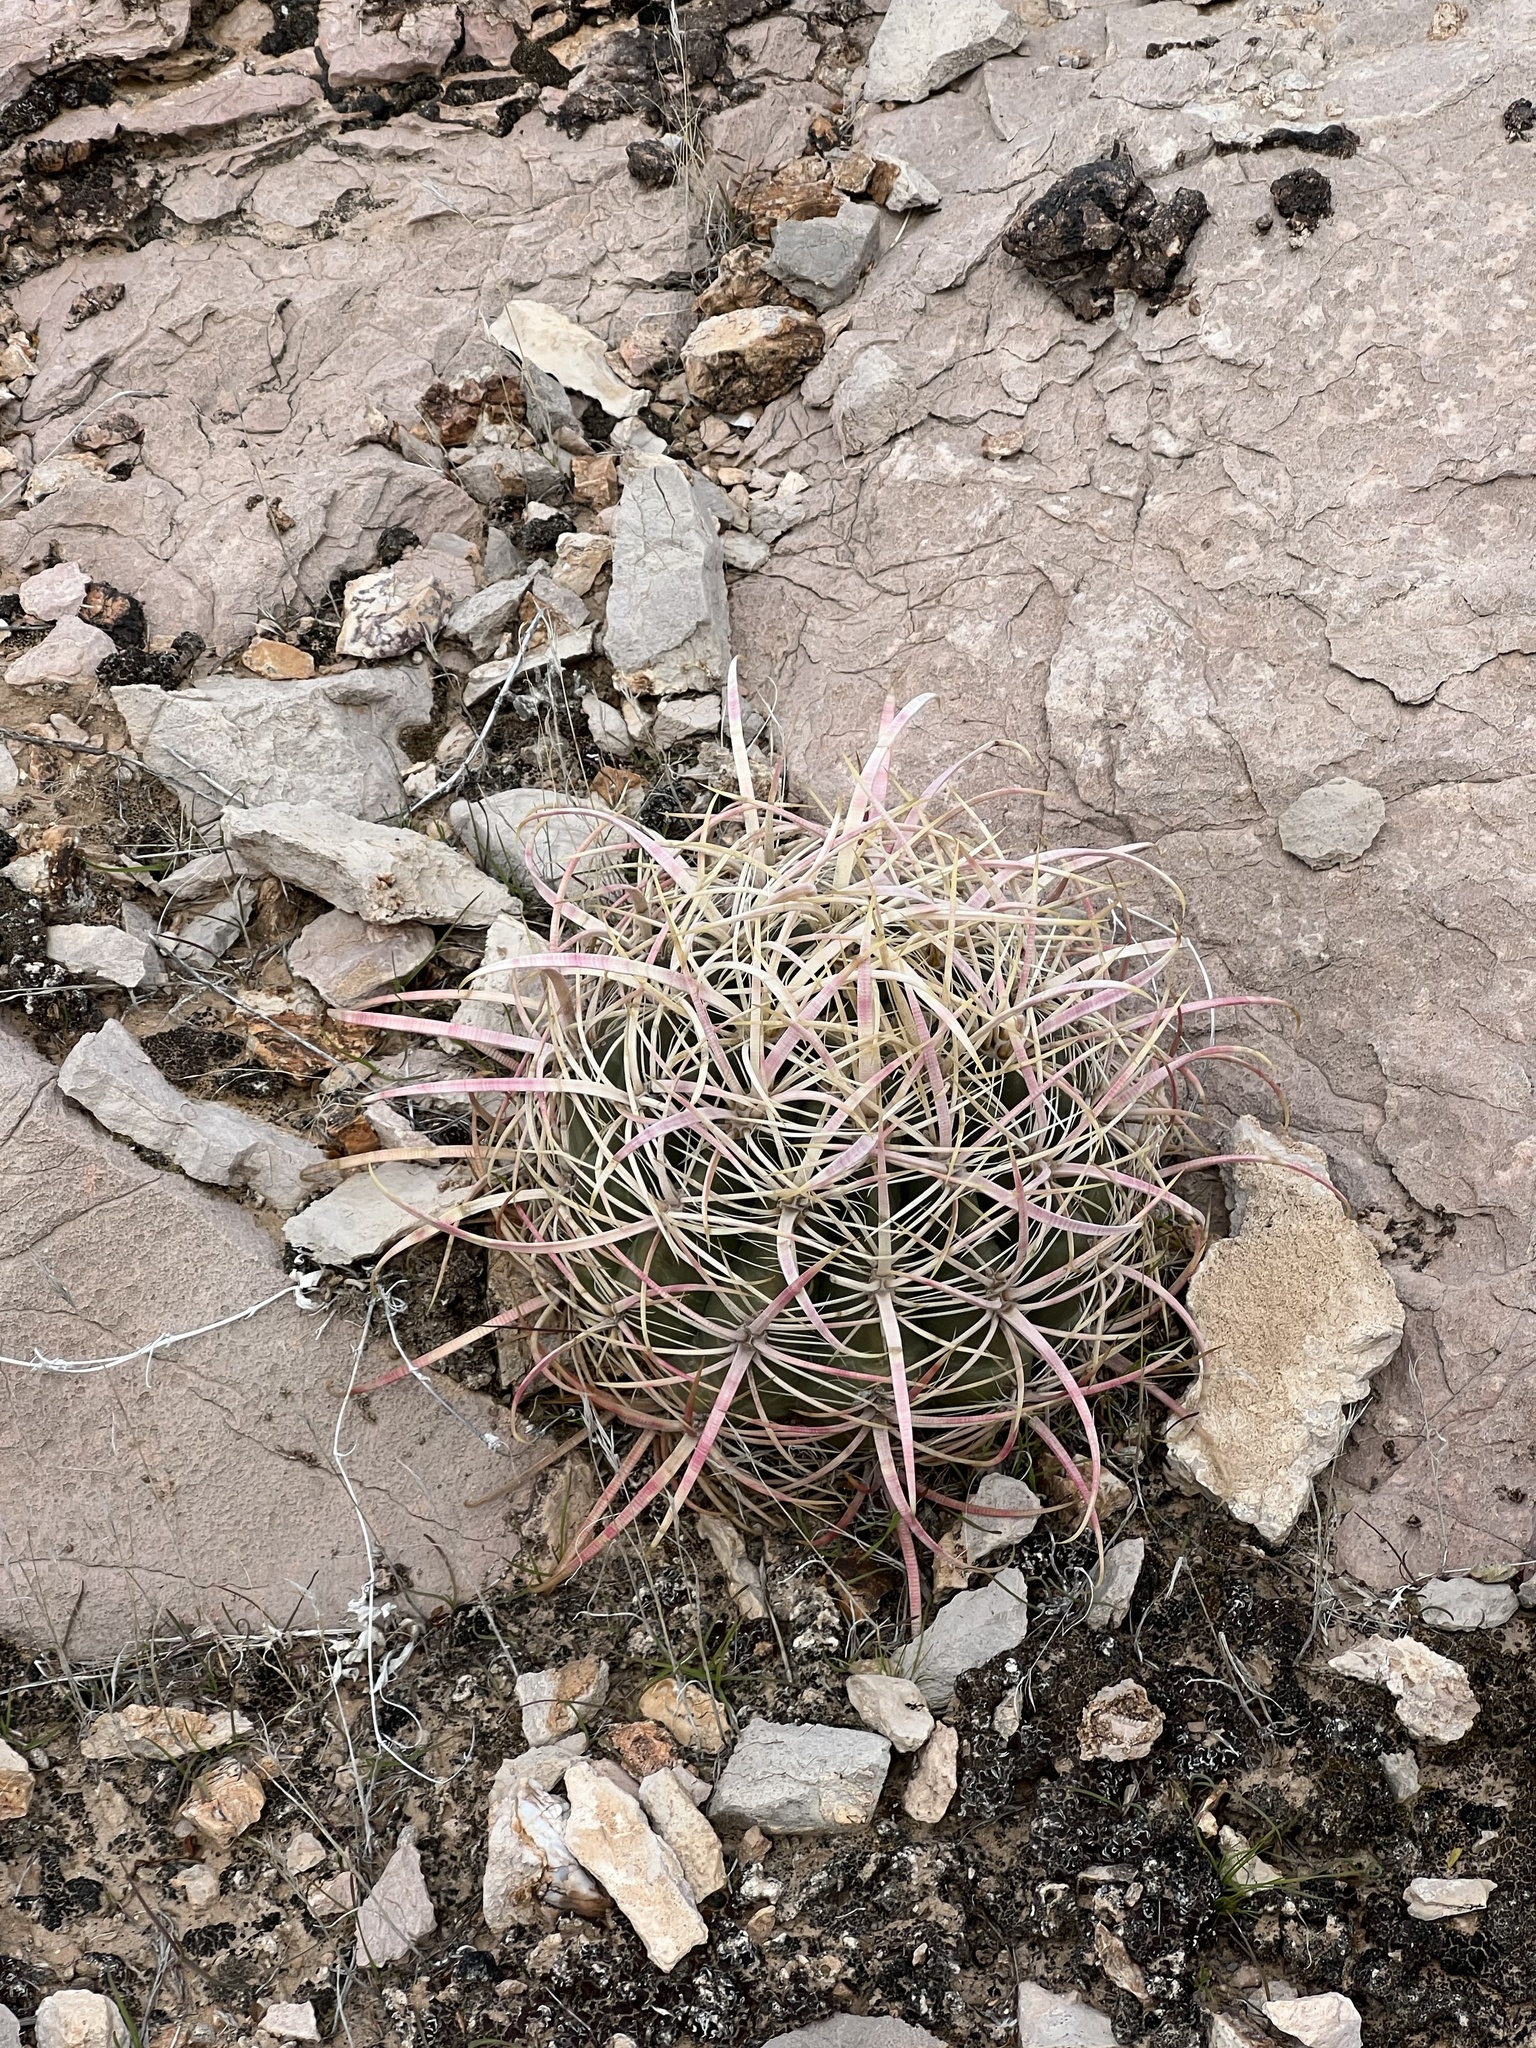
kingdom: Plantae
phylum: Tracheophyta
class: Magnoliopsida
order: Caryophyllales
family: Cactaceae
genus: Ferocactus
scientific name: Ferocactus cylindraceus
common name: California barrel cactus
